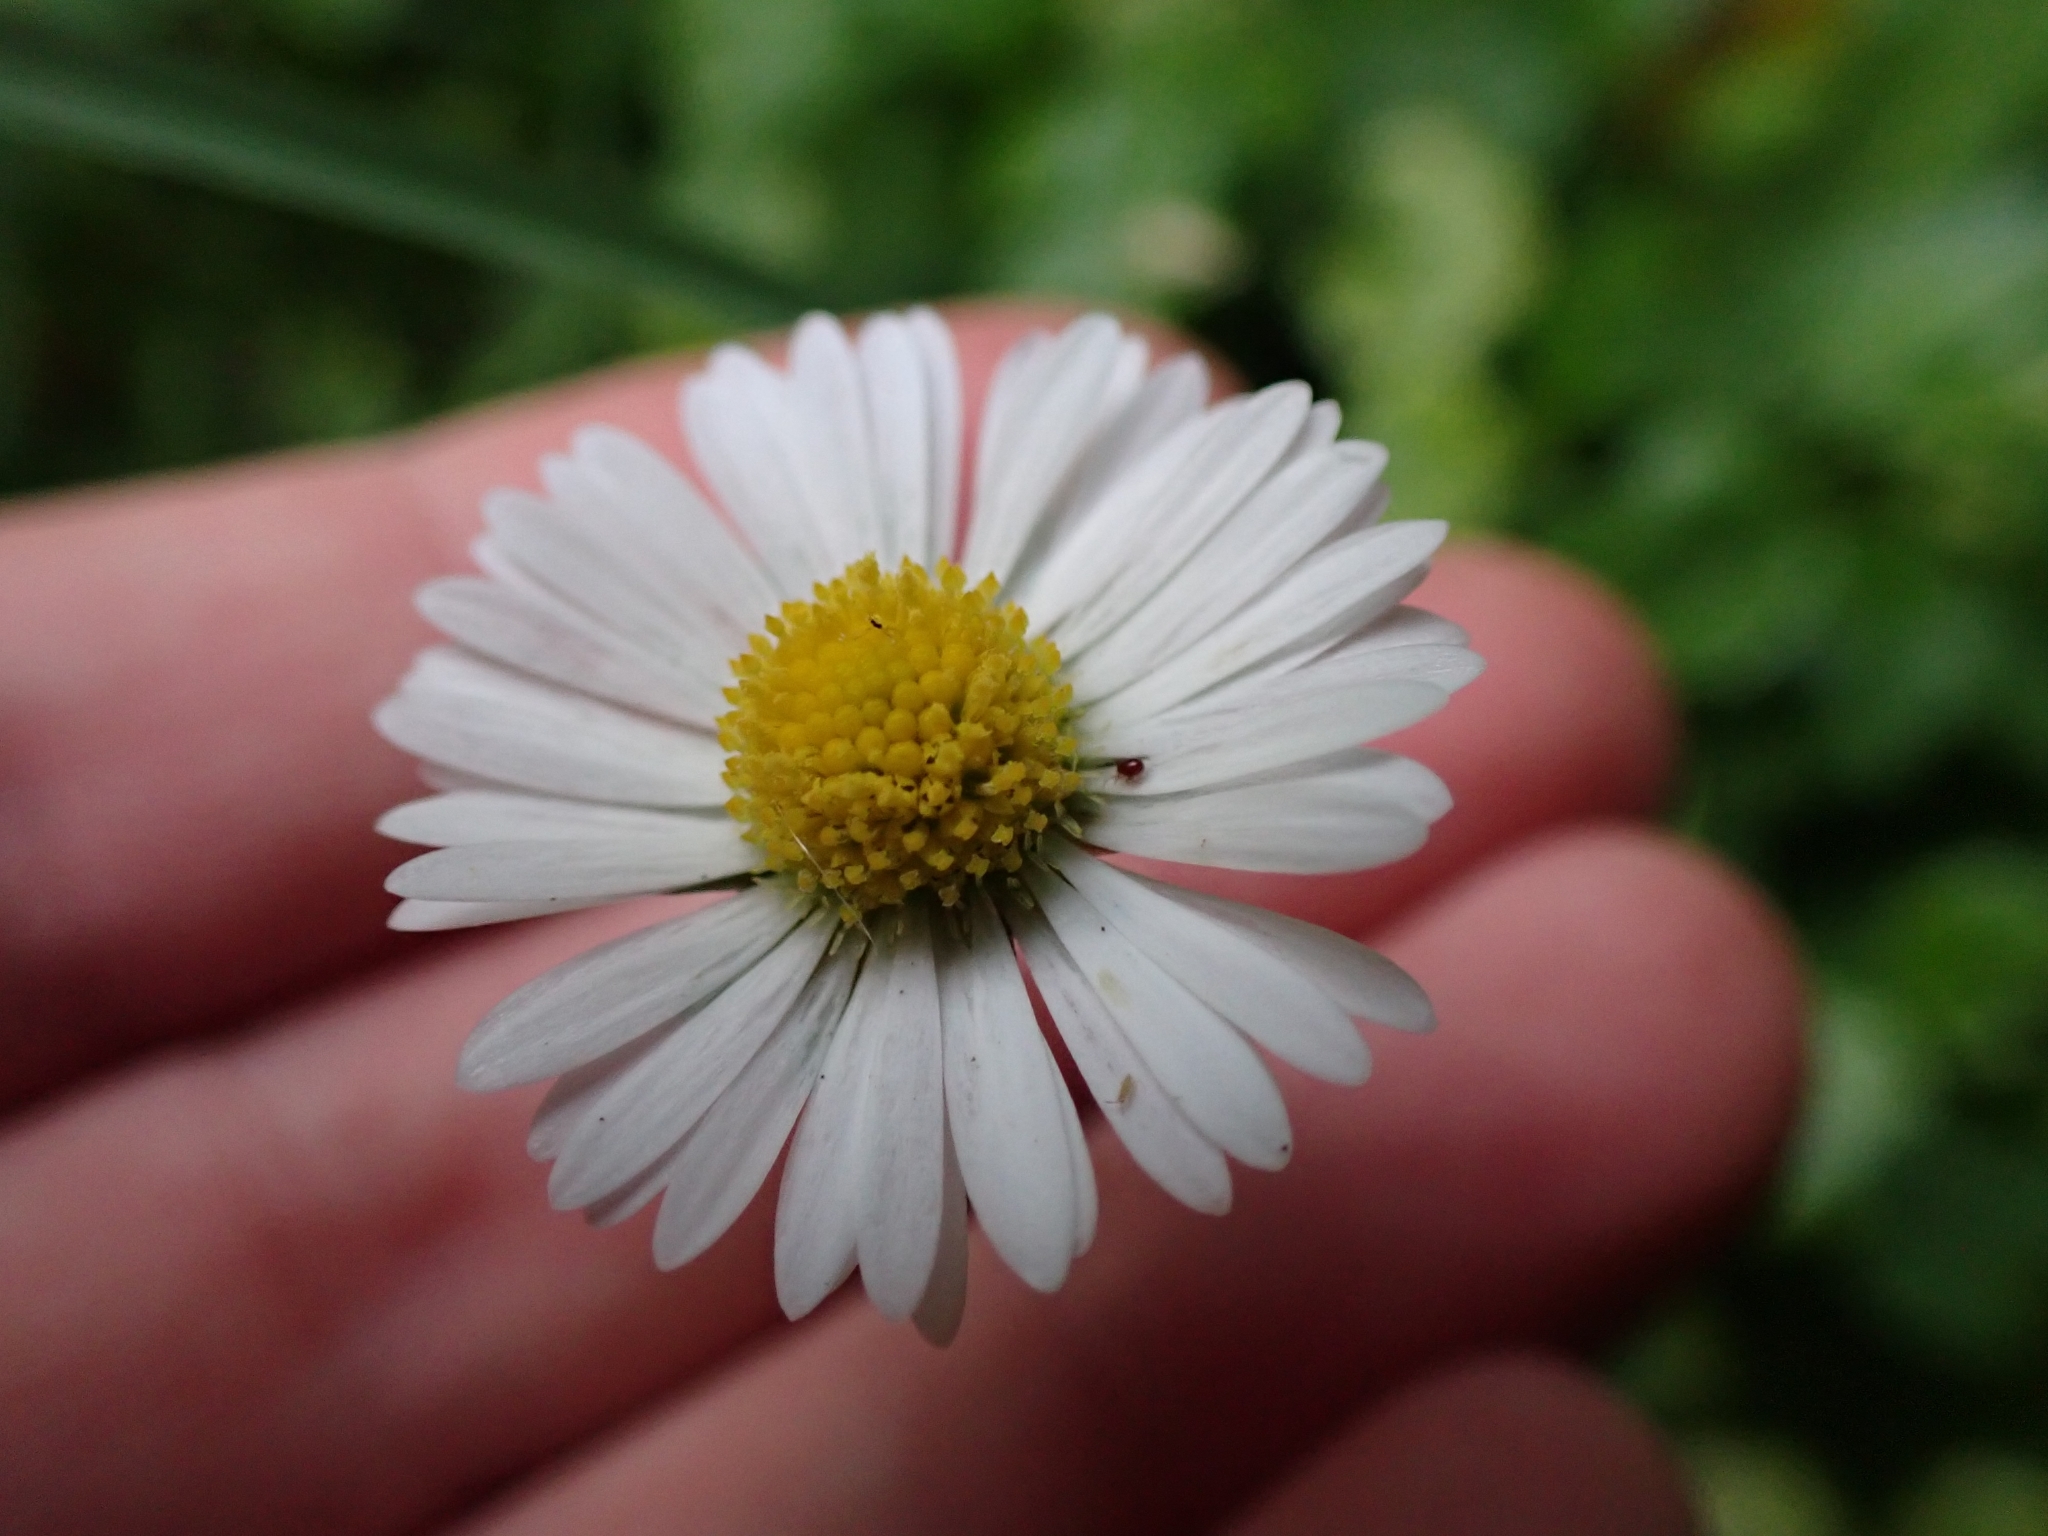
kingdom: Plantae
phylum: Tracheophyta
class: Magnoliopsida
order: Asterales
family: Asteraceae
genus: Bellis
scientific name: Bellis perennis
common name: Lawndaisy
